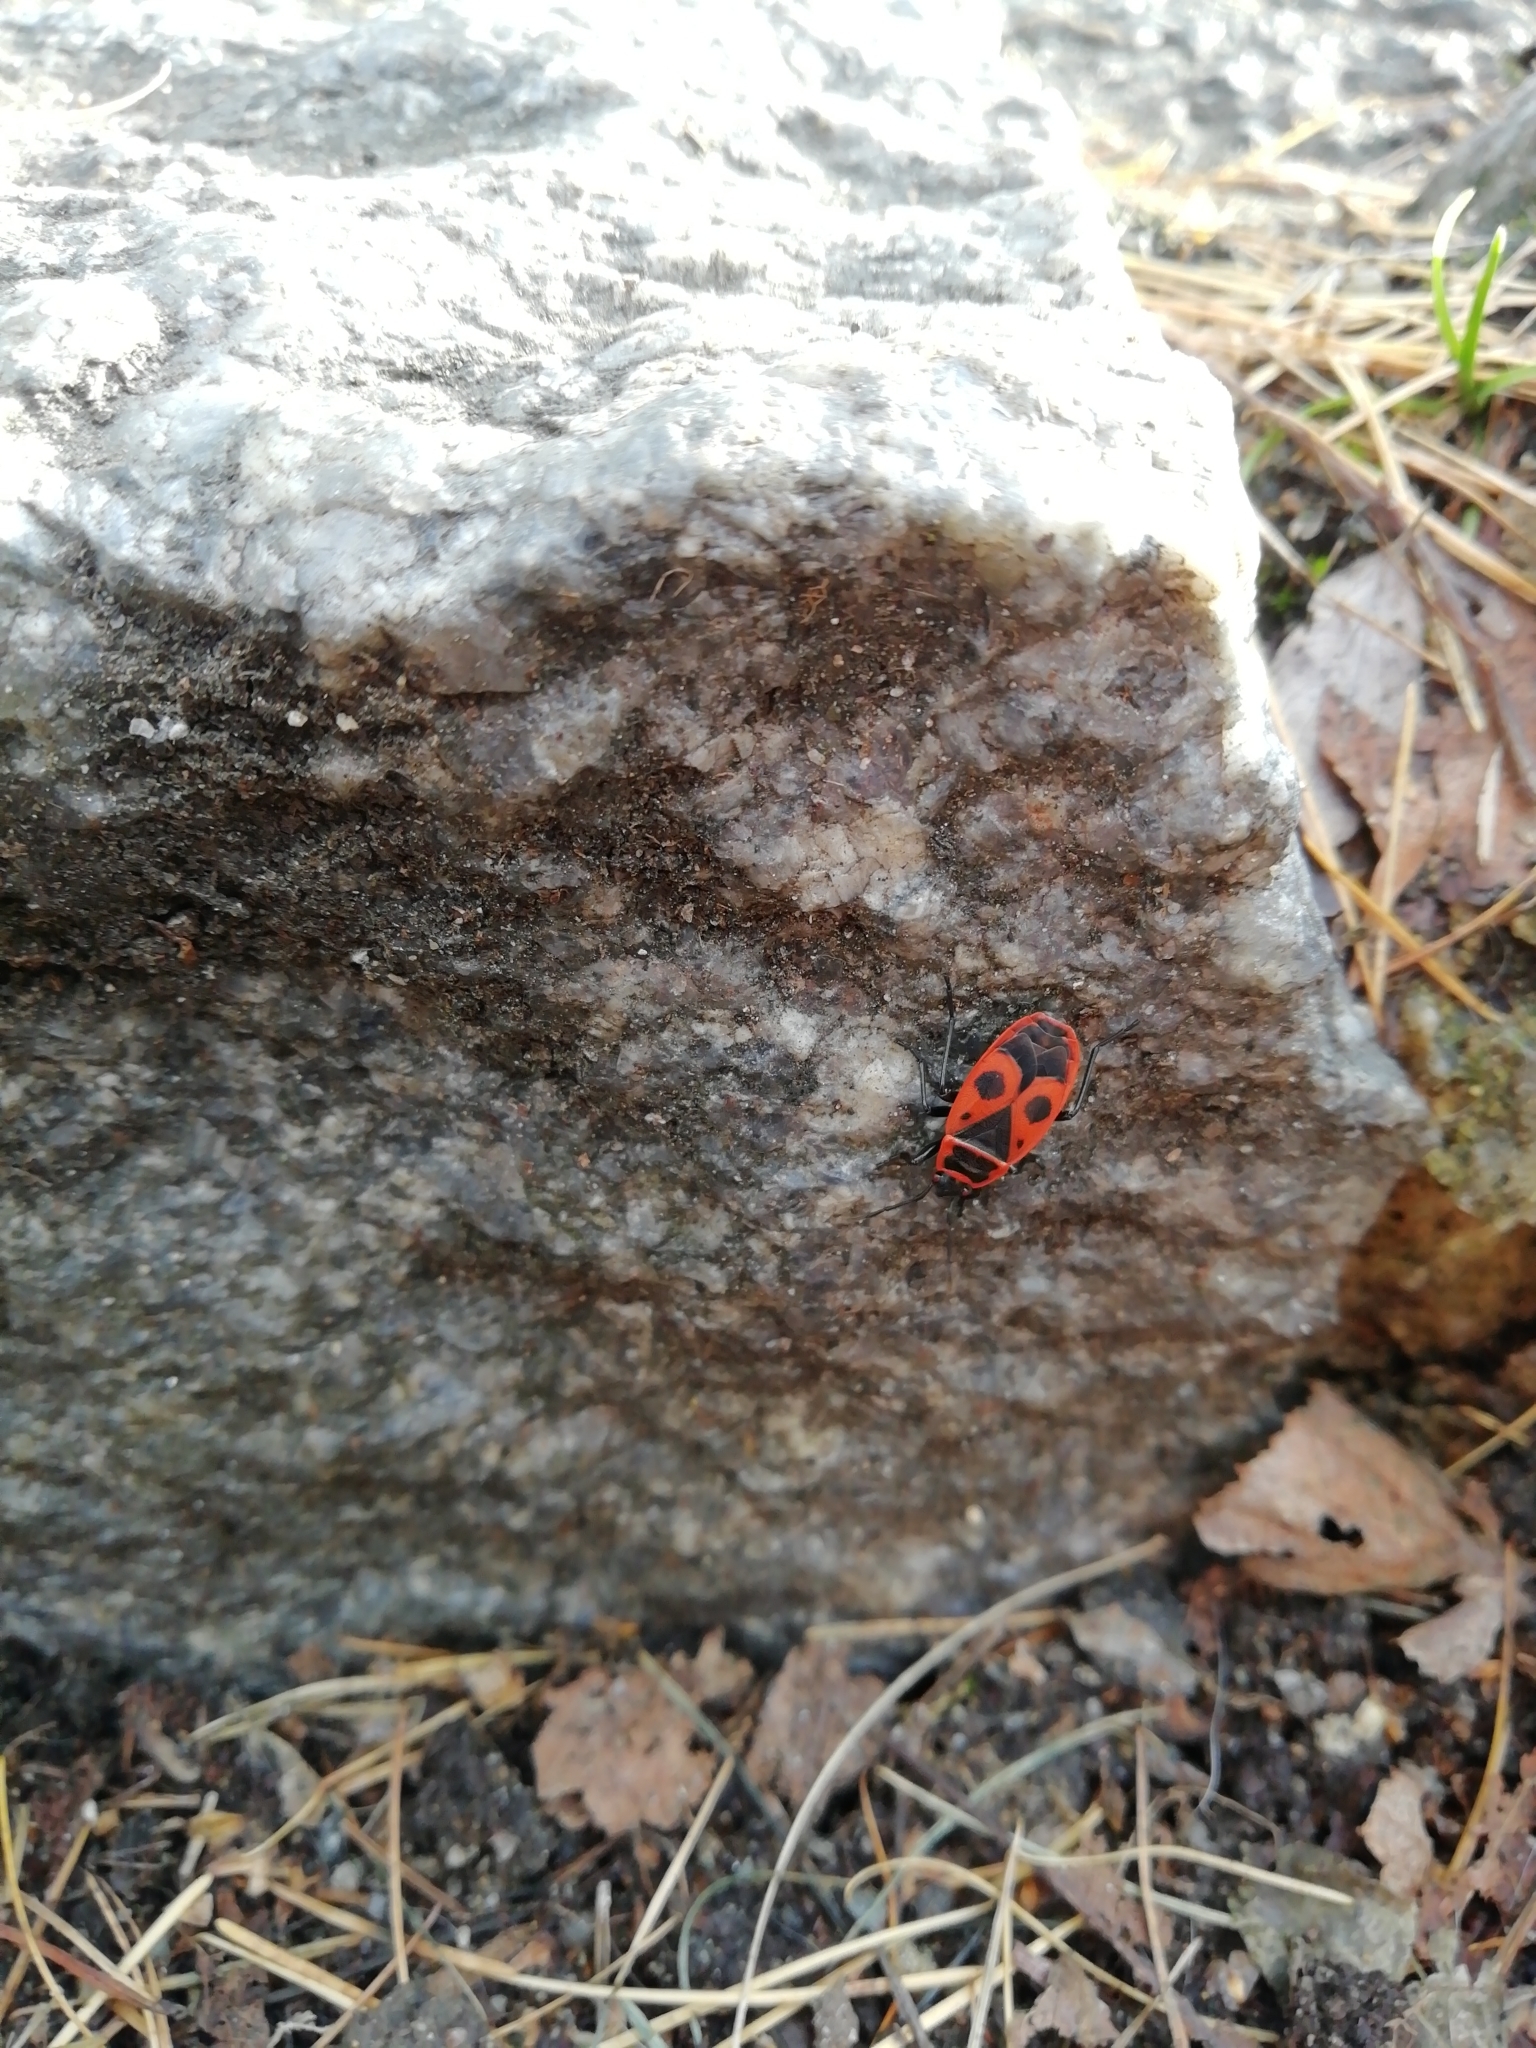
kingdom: Animalia
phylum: Arthropoda
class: Insecta
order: Hemiptera
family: Pyrrhocoridae
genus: Pyrrhocoris
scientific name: Pyrrhocoris apterus
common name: Firebug
